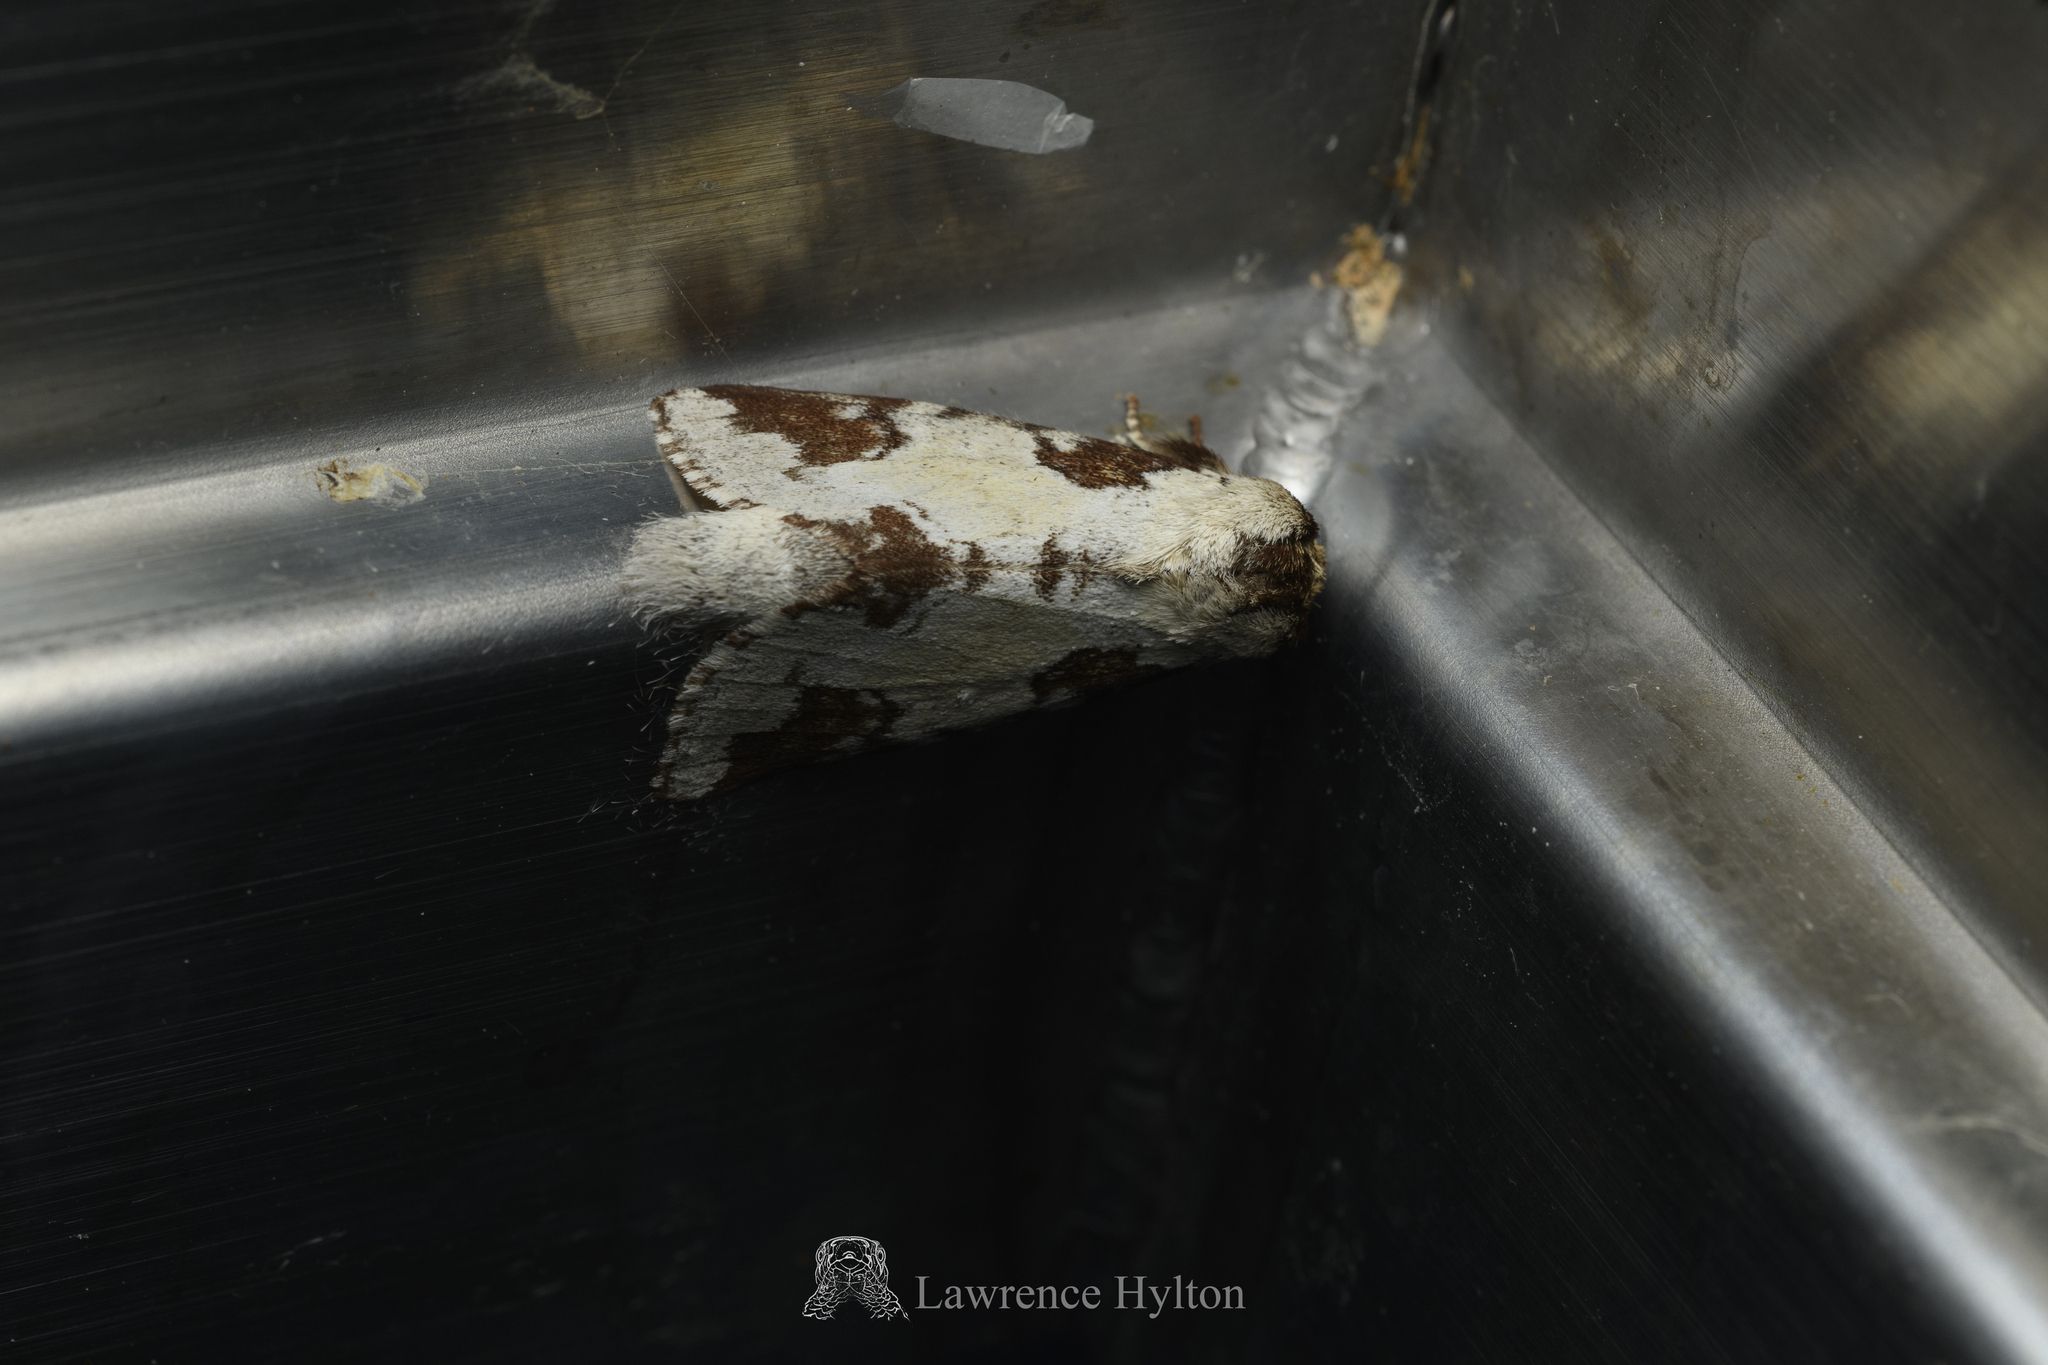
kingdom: Animalia
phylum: Arthropoda
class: Insecta
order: Lepidoptera
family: Notodontidae
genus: Neodrymonia
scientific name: Neodrymonia taipoensis
